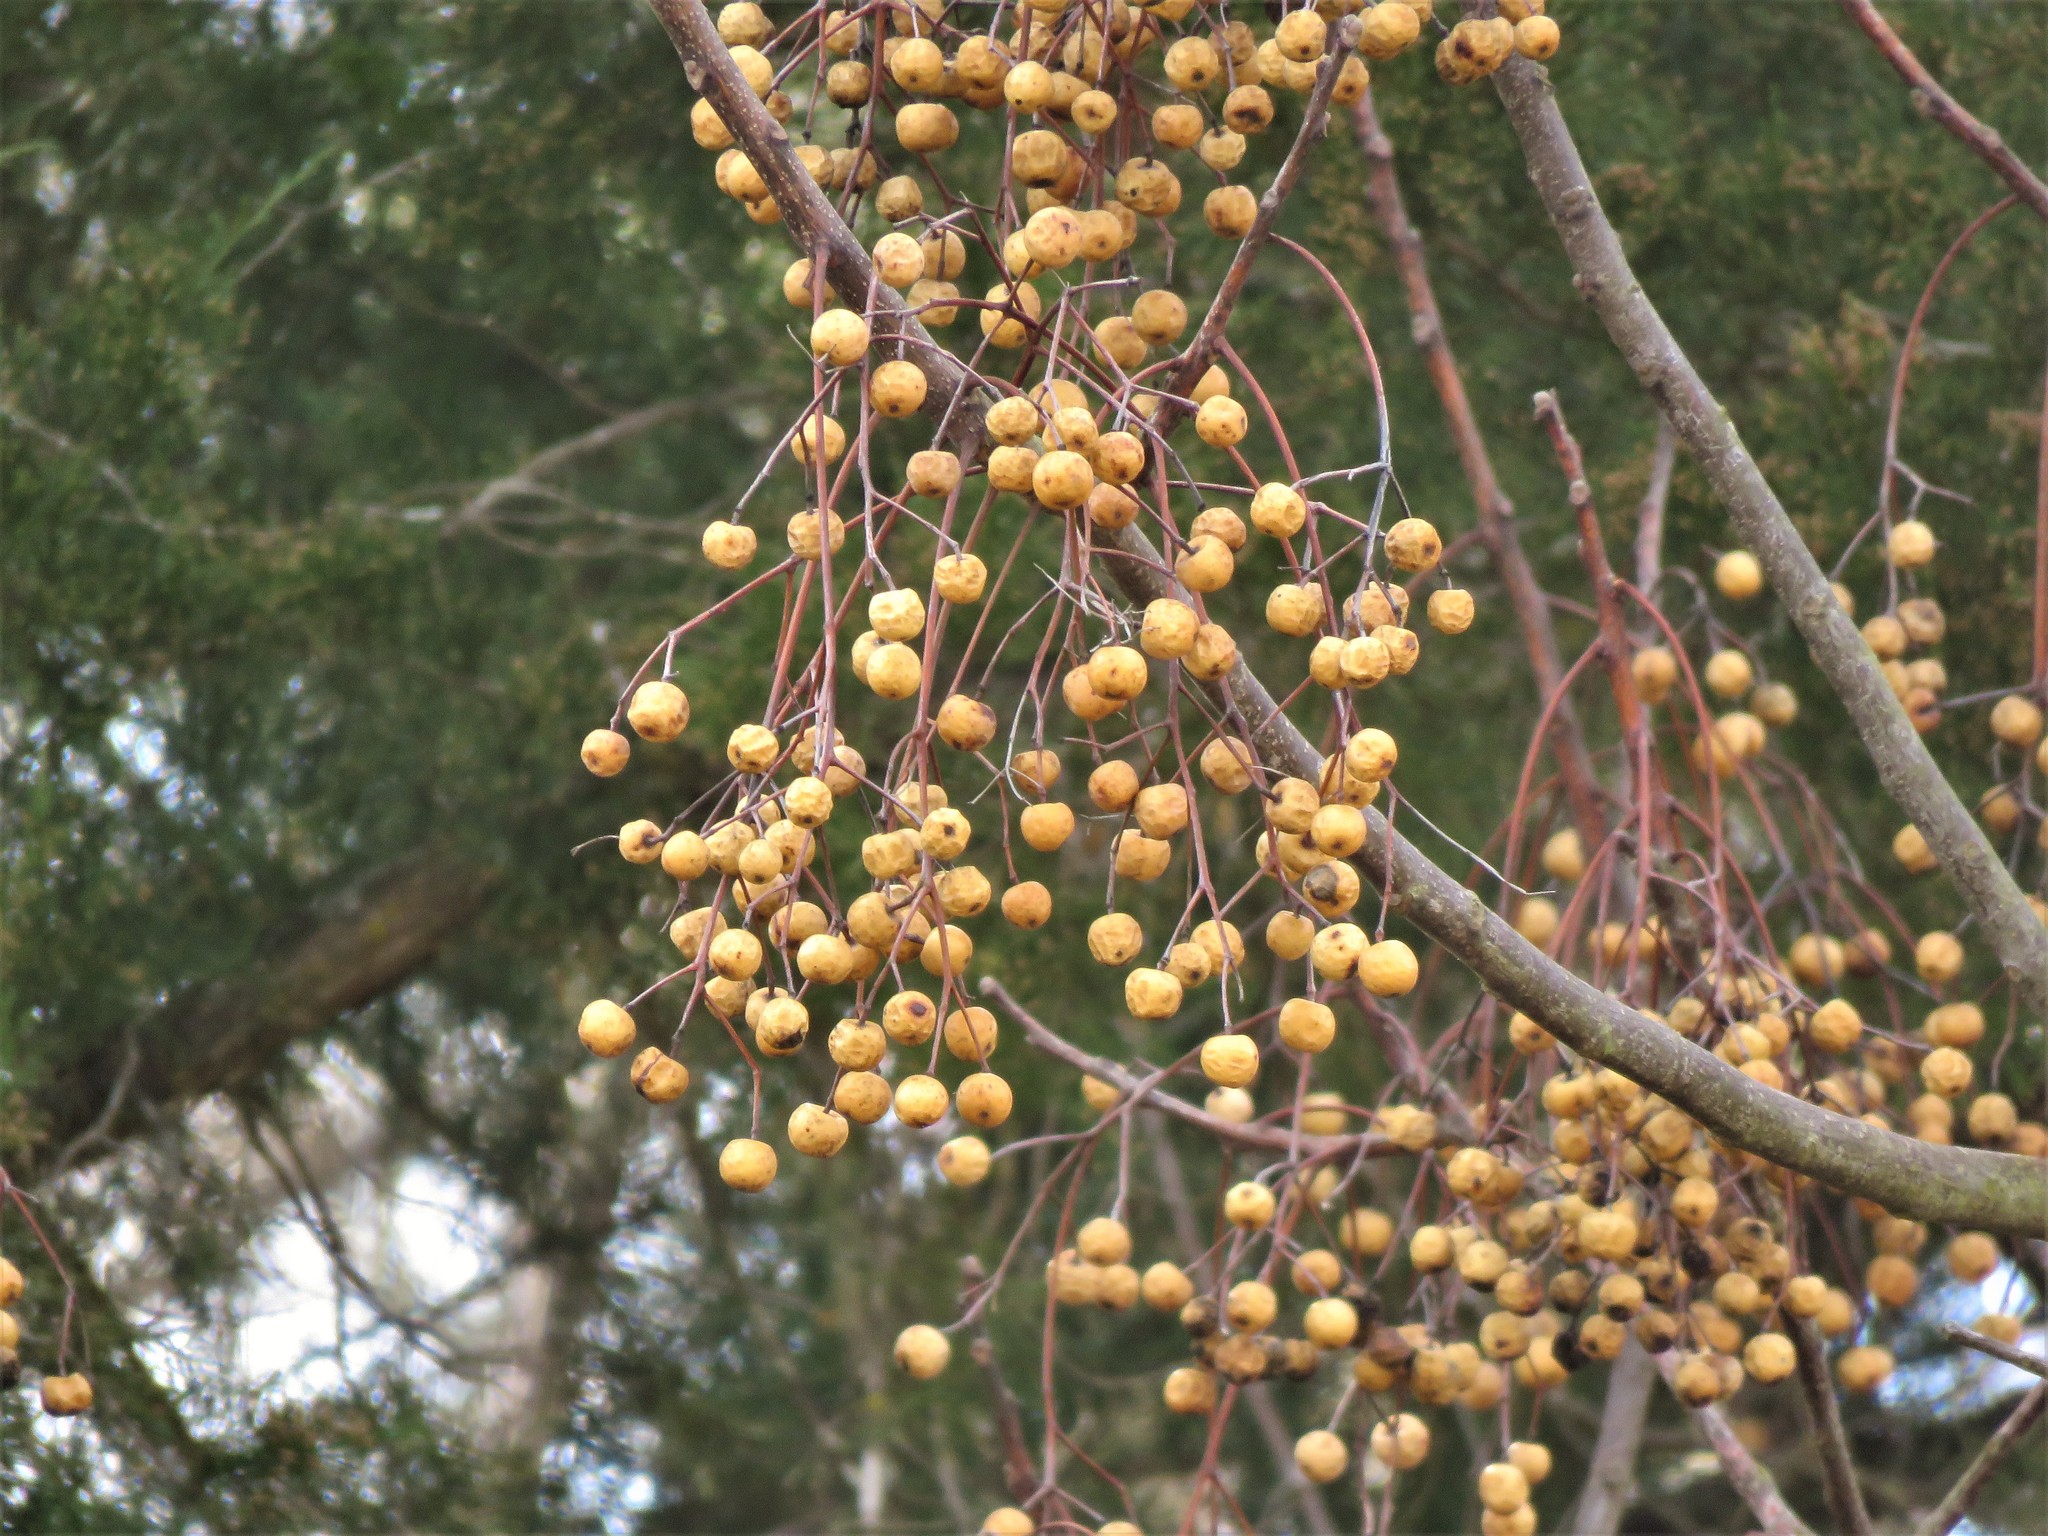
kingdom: Plantae
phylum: Tracheophyta
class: Magnoliopsida
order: Sapindales
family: Meliaceae
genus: Melia
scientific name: Melia azedarach
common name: Chinaberrytree
